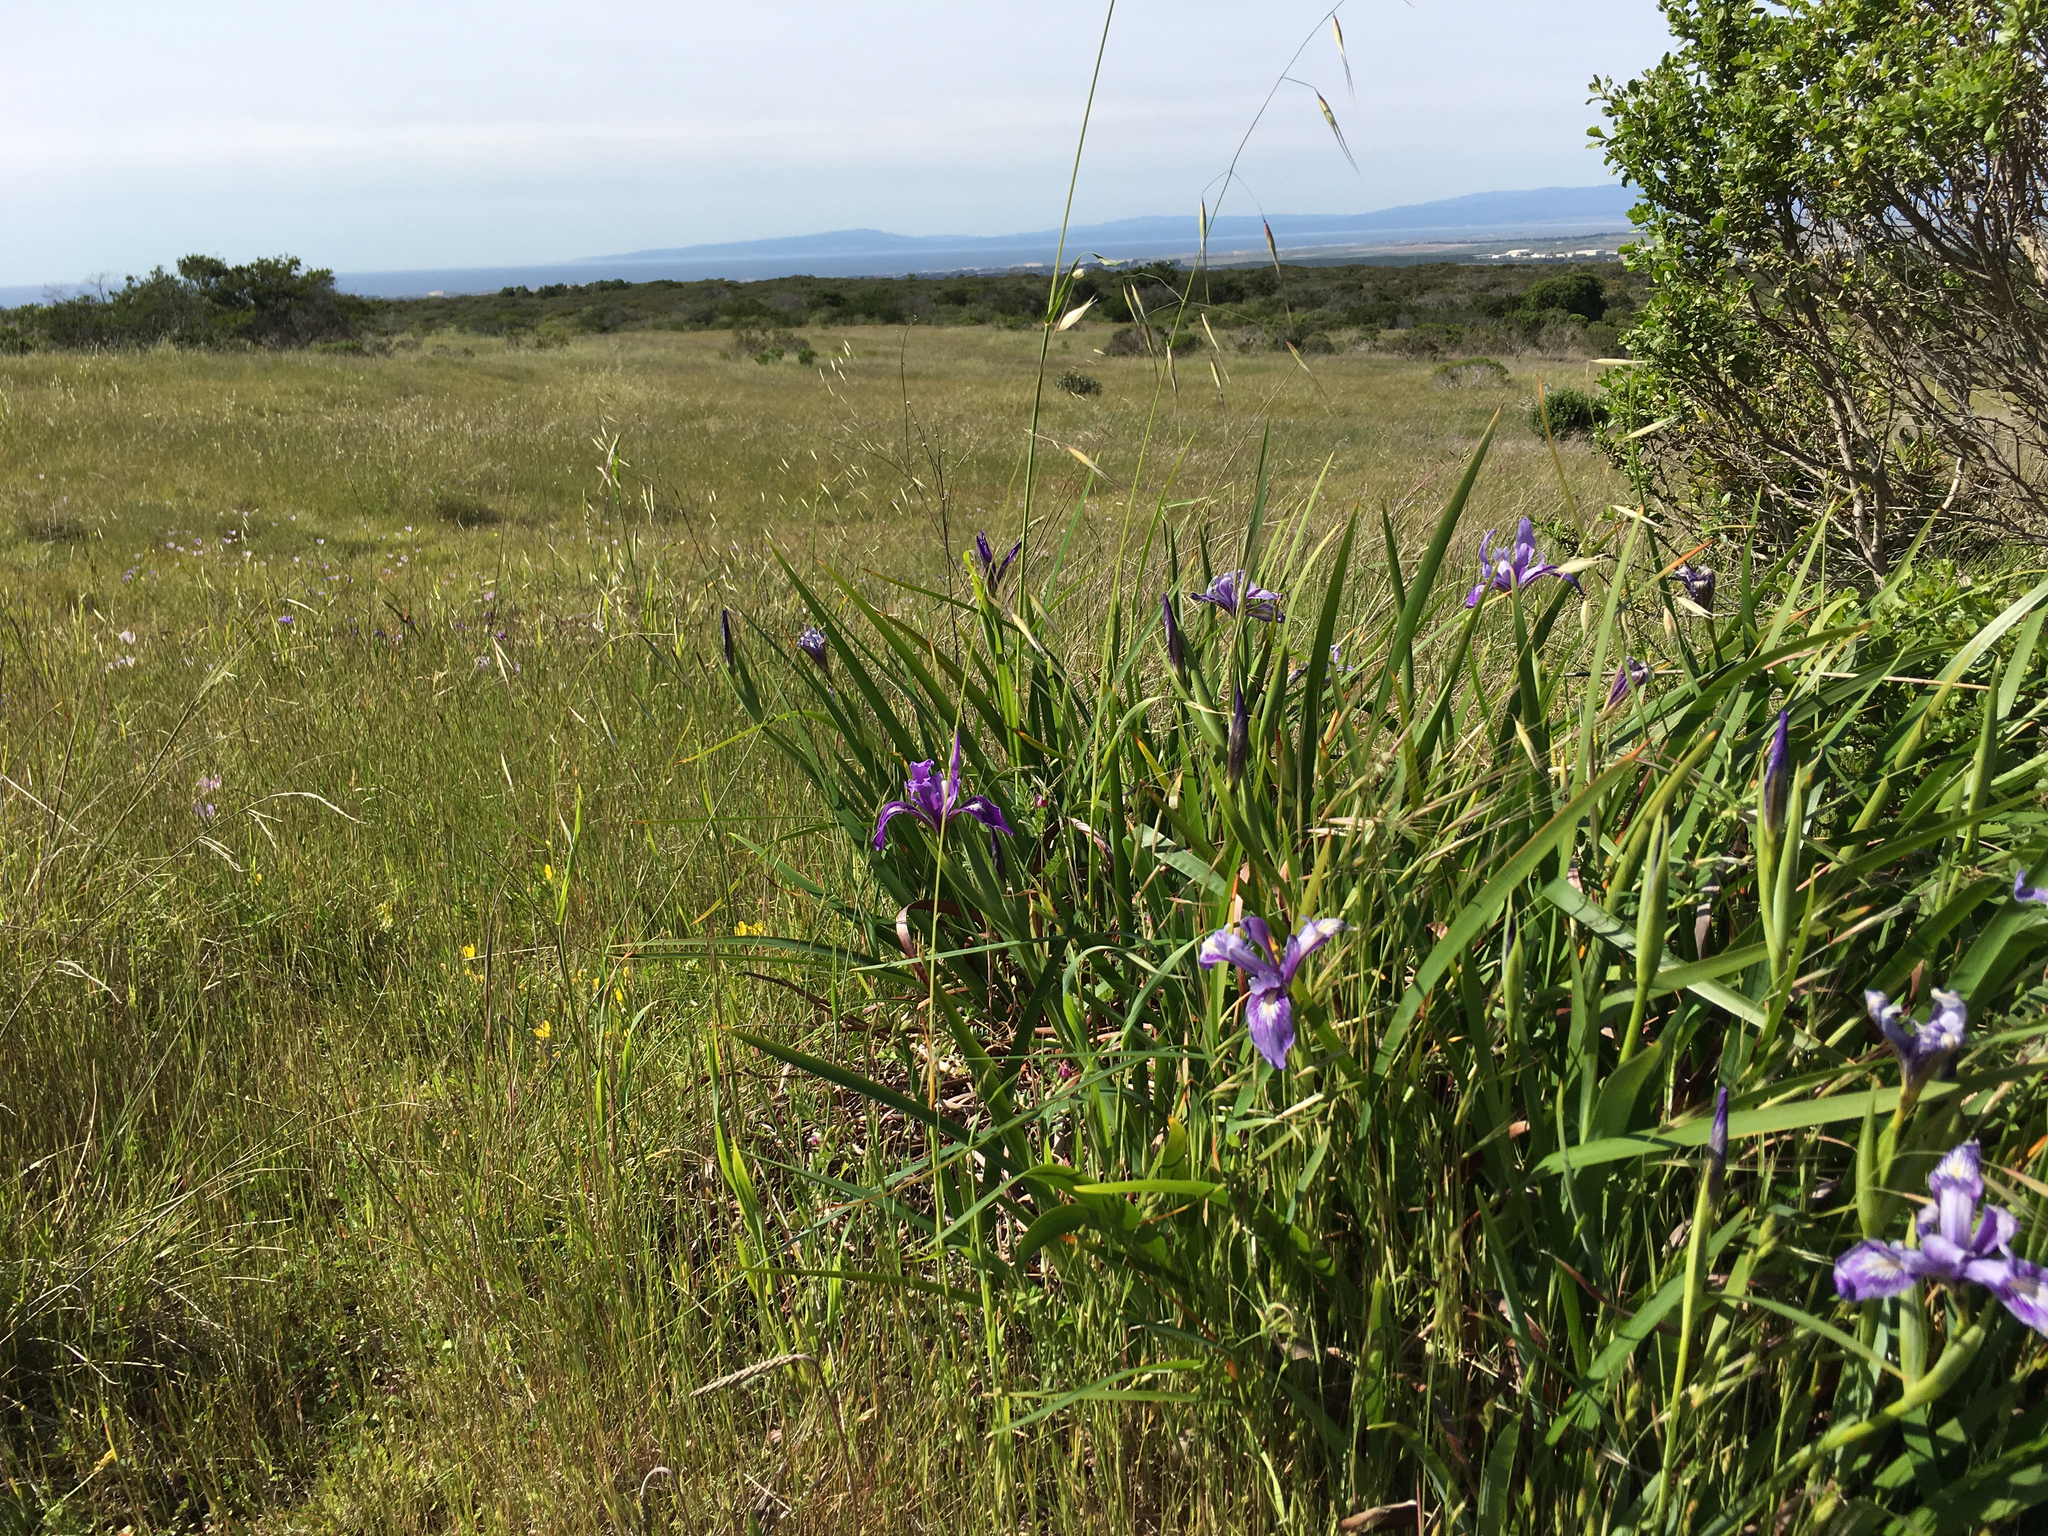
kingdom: Plantae
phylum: Tracheophyta
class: Liliopsida
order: Asparagales
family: Iridaceae
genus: Iris
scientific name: Iris douglasiana
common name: Marin iris
